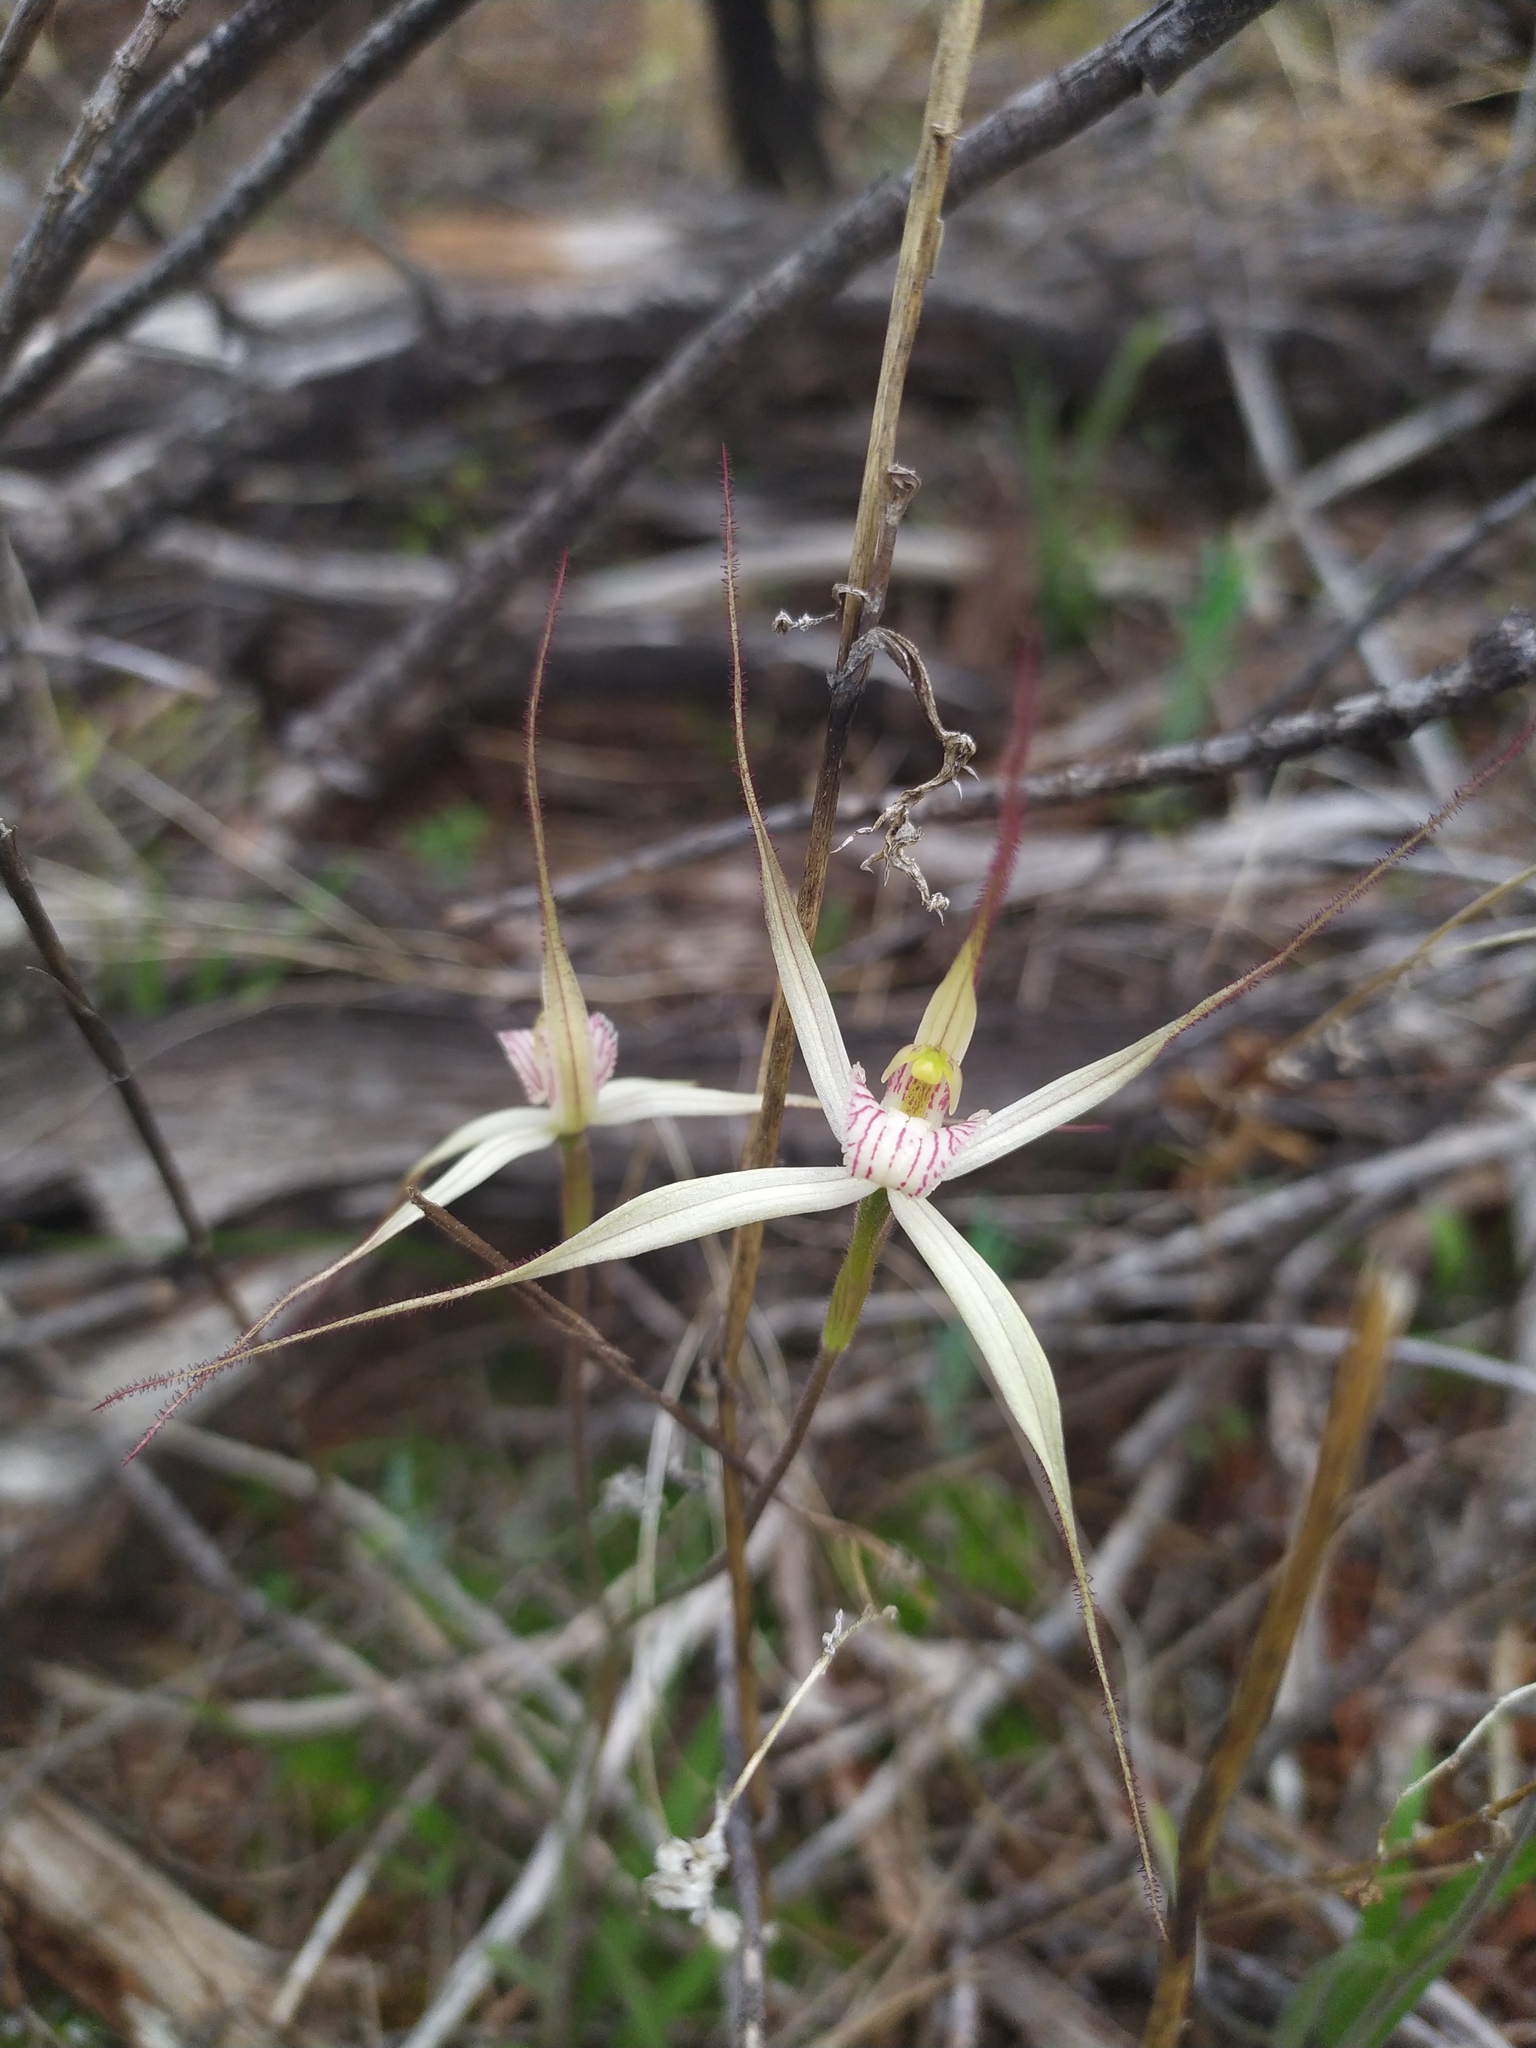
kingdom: Plantae
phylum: Tracheophyta
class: Liliopsida
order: Asparagales
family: Orchidaceae
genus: Caladenia
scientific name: Caladenia saxicola
